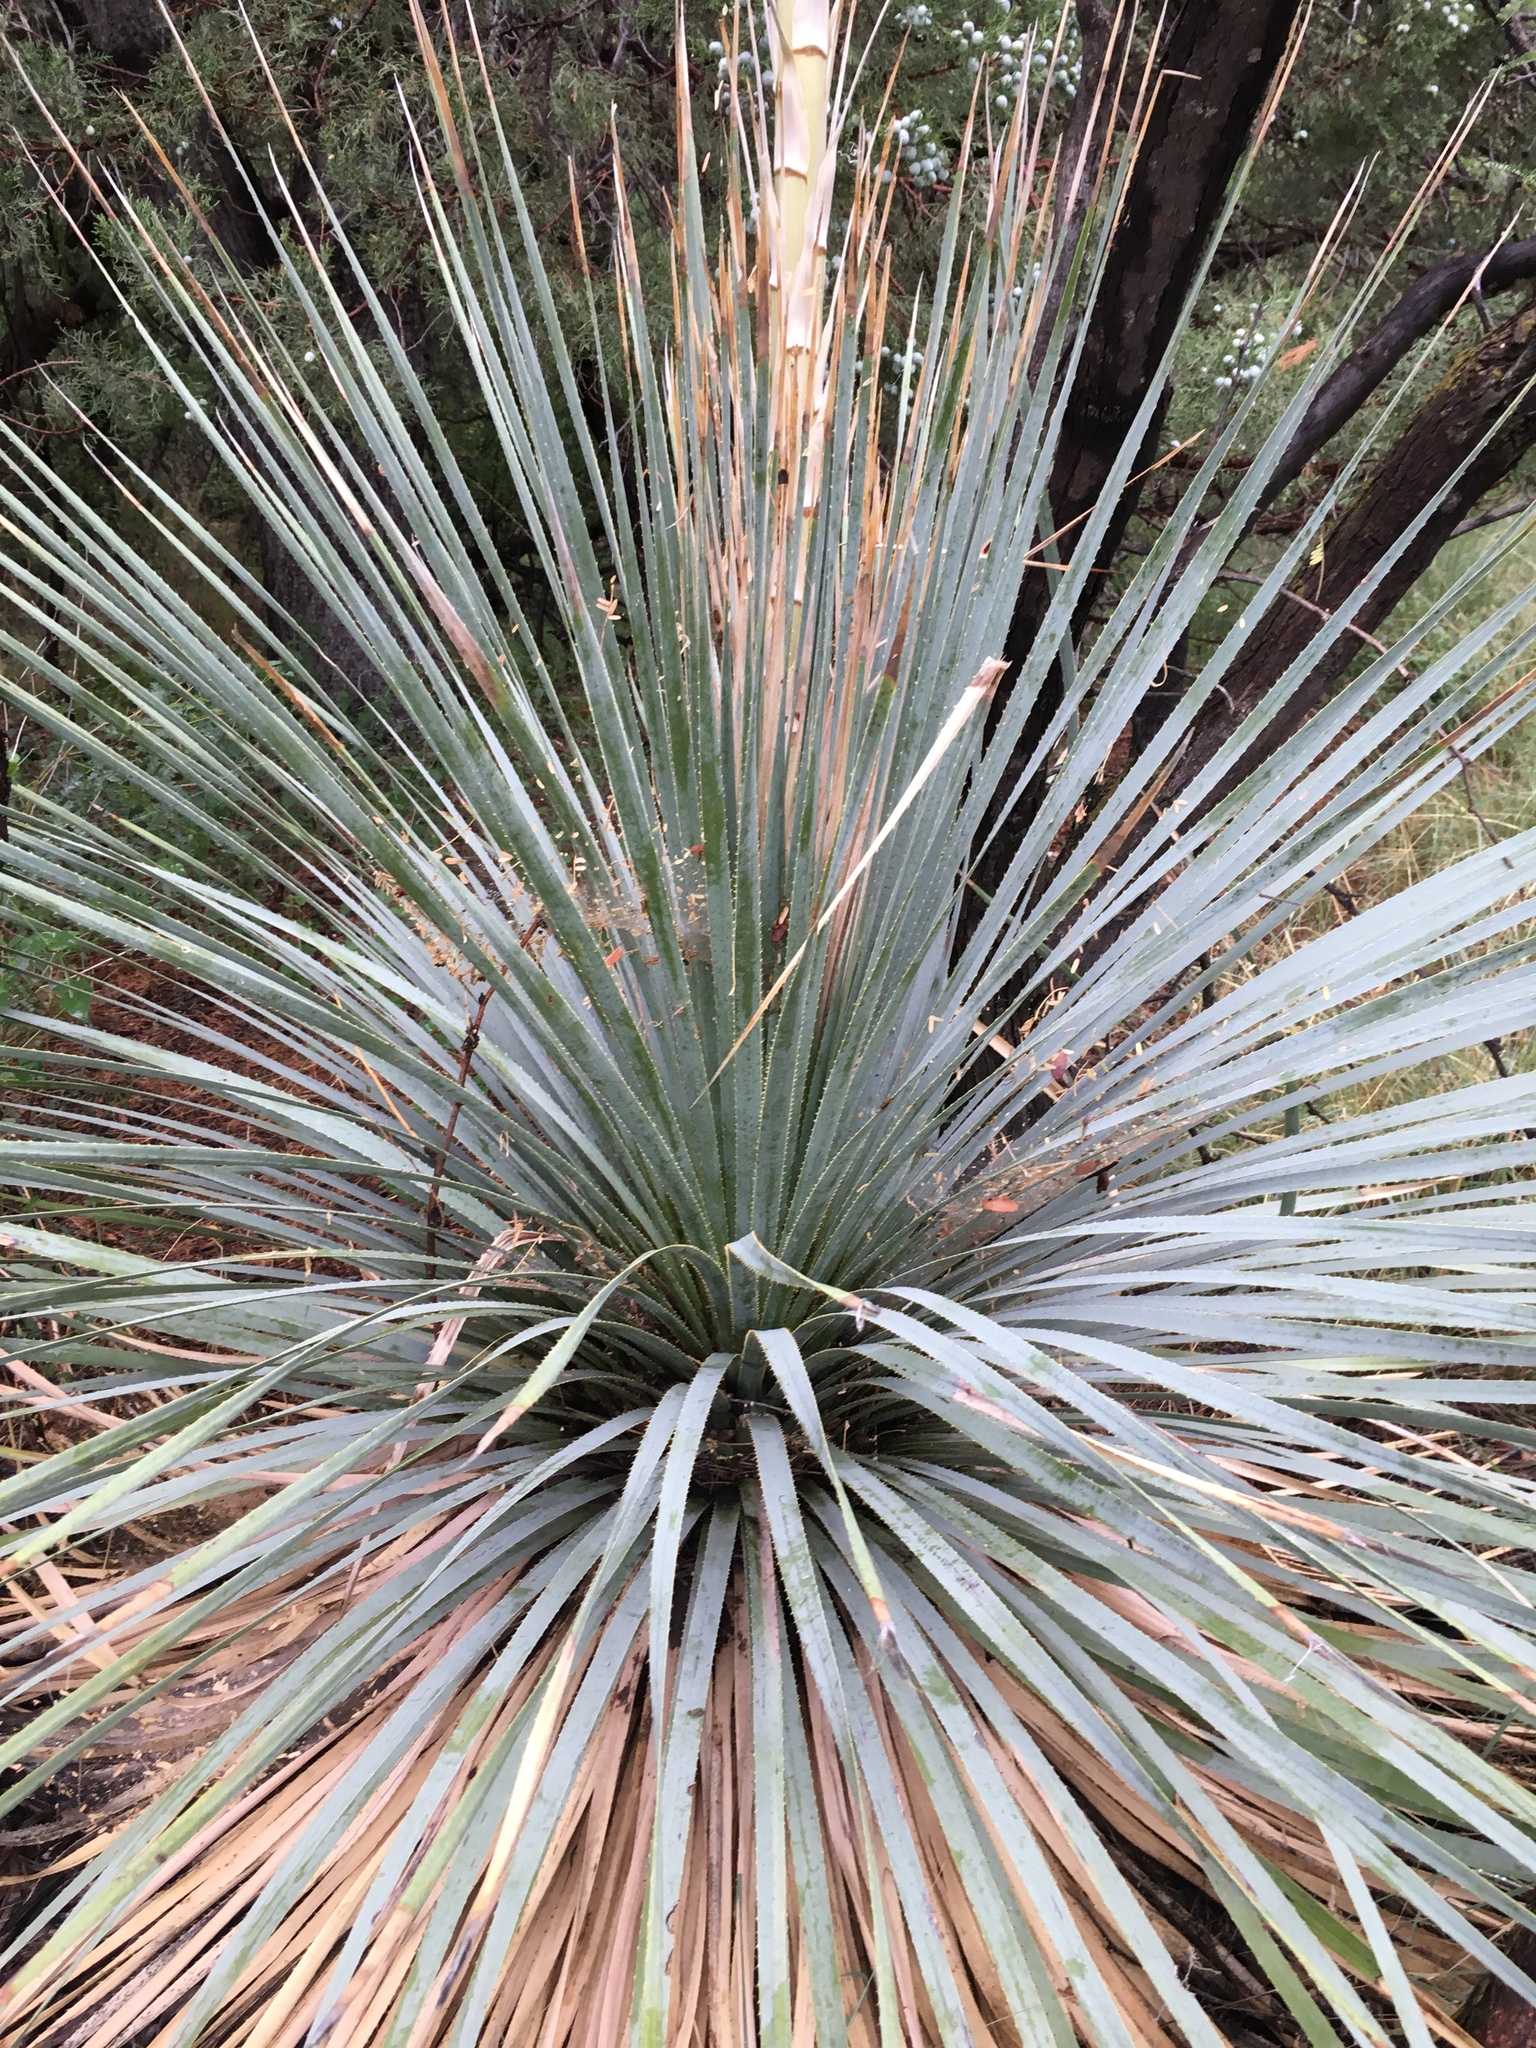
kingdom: Plantae
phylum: Tracheophyta
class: Liliopsida
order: Asparagales
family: Asparagaceae
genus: Dasylirion
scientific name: Dasylirion wheeleri
